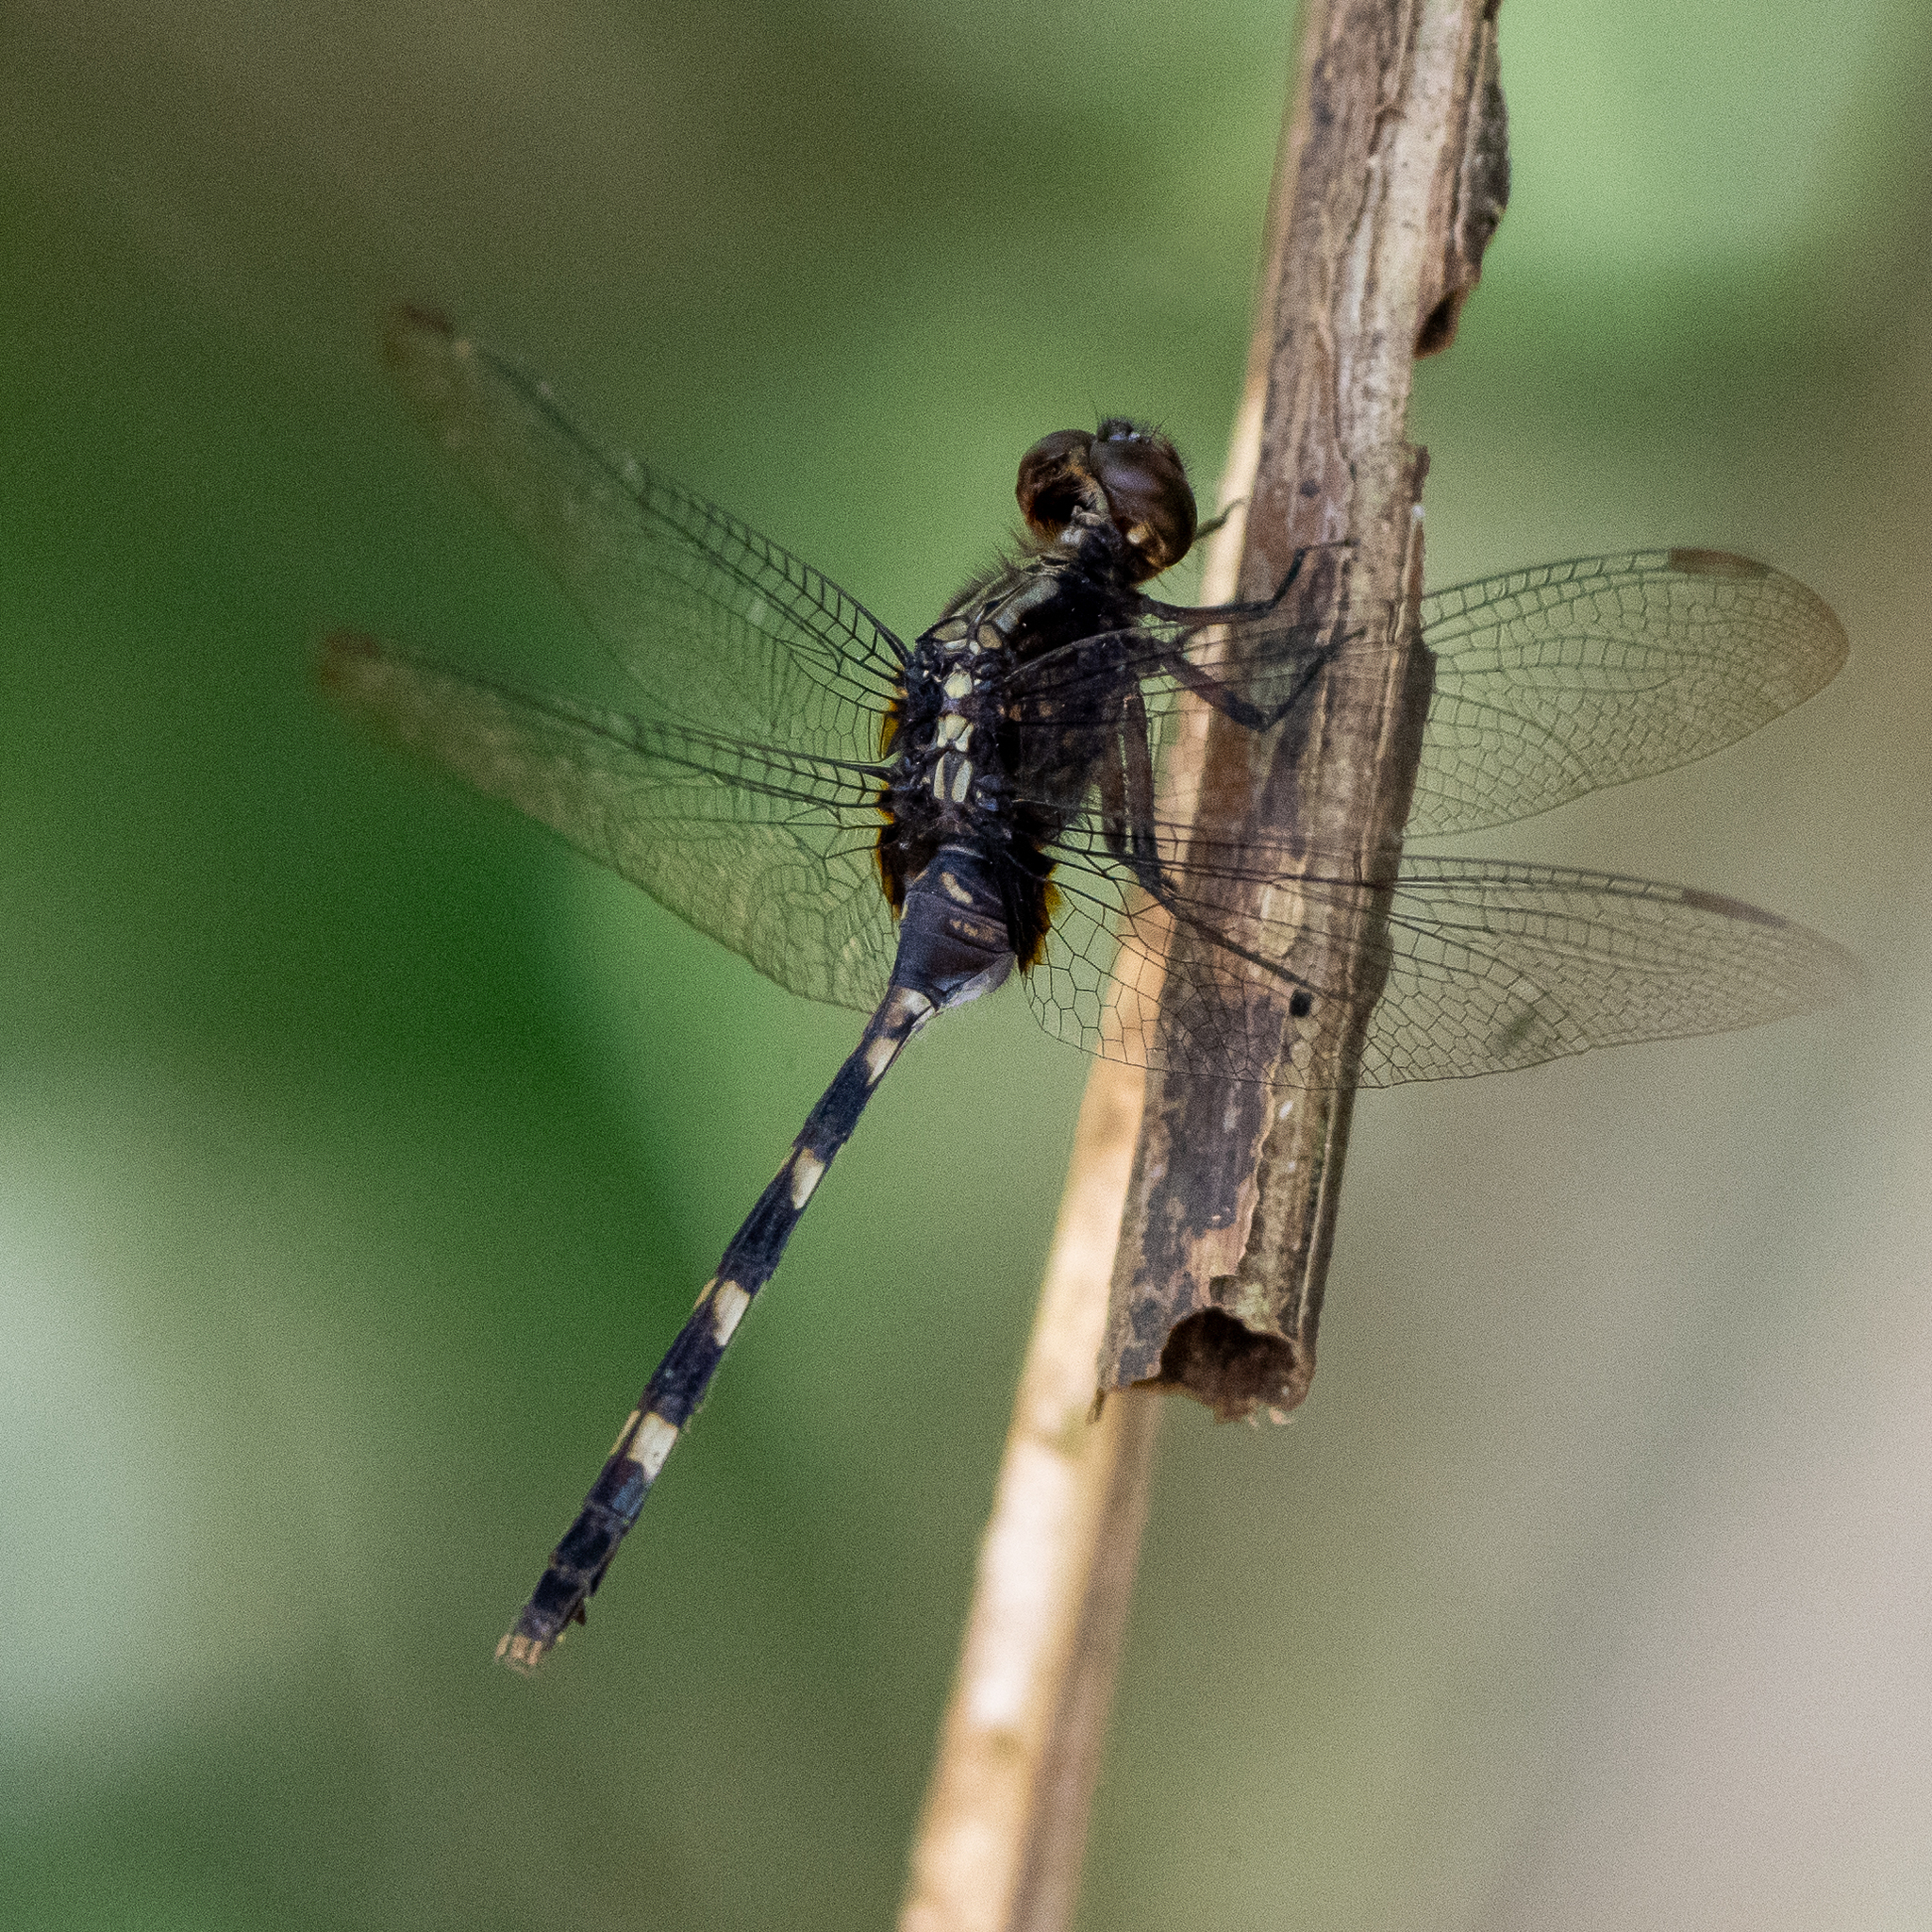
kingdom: Animalia
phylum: Arthropoda
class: Insecta
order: Odonata
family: Libellulidae
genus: Erythemis
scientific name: Erythemis plebeja
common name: Pin-tailed pondhawk
